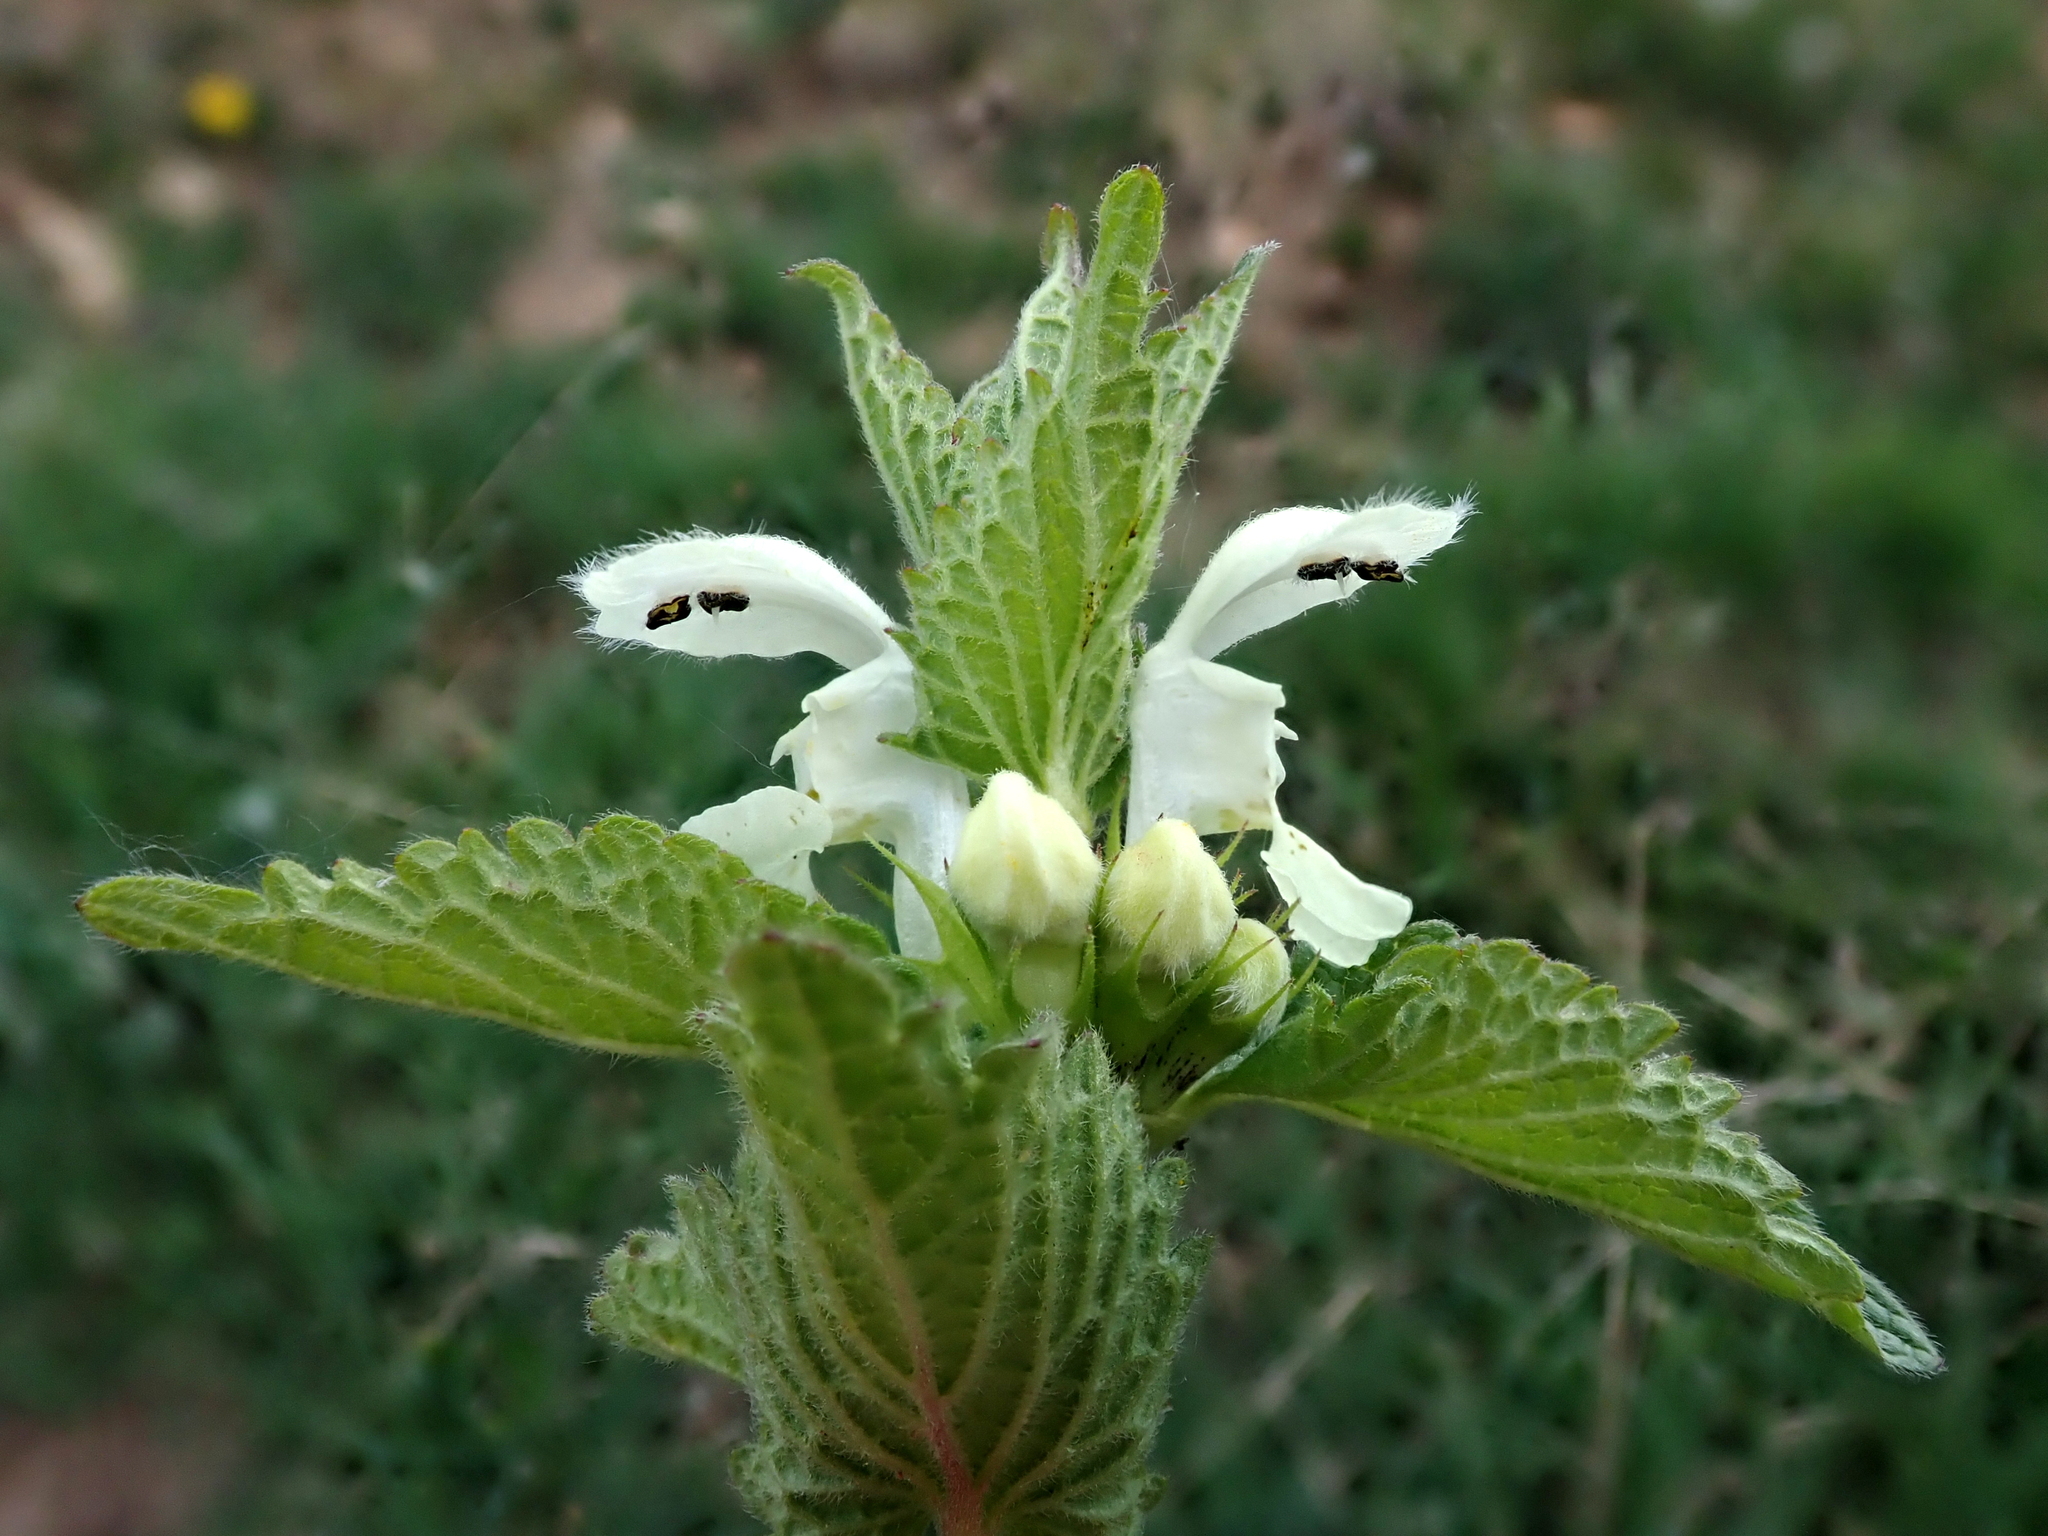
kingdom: Plantae
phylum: Tracheophyta
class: Magnoliopsida
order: Lamiales
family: Lamiaceae
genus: Lamium
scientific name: Lamium album
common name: White dead-nettle
